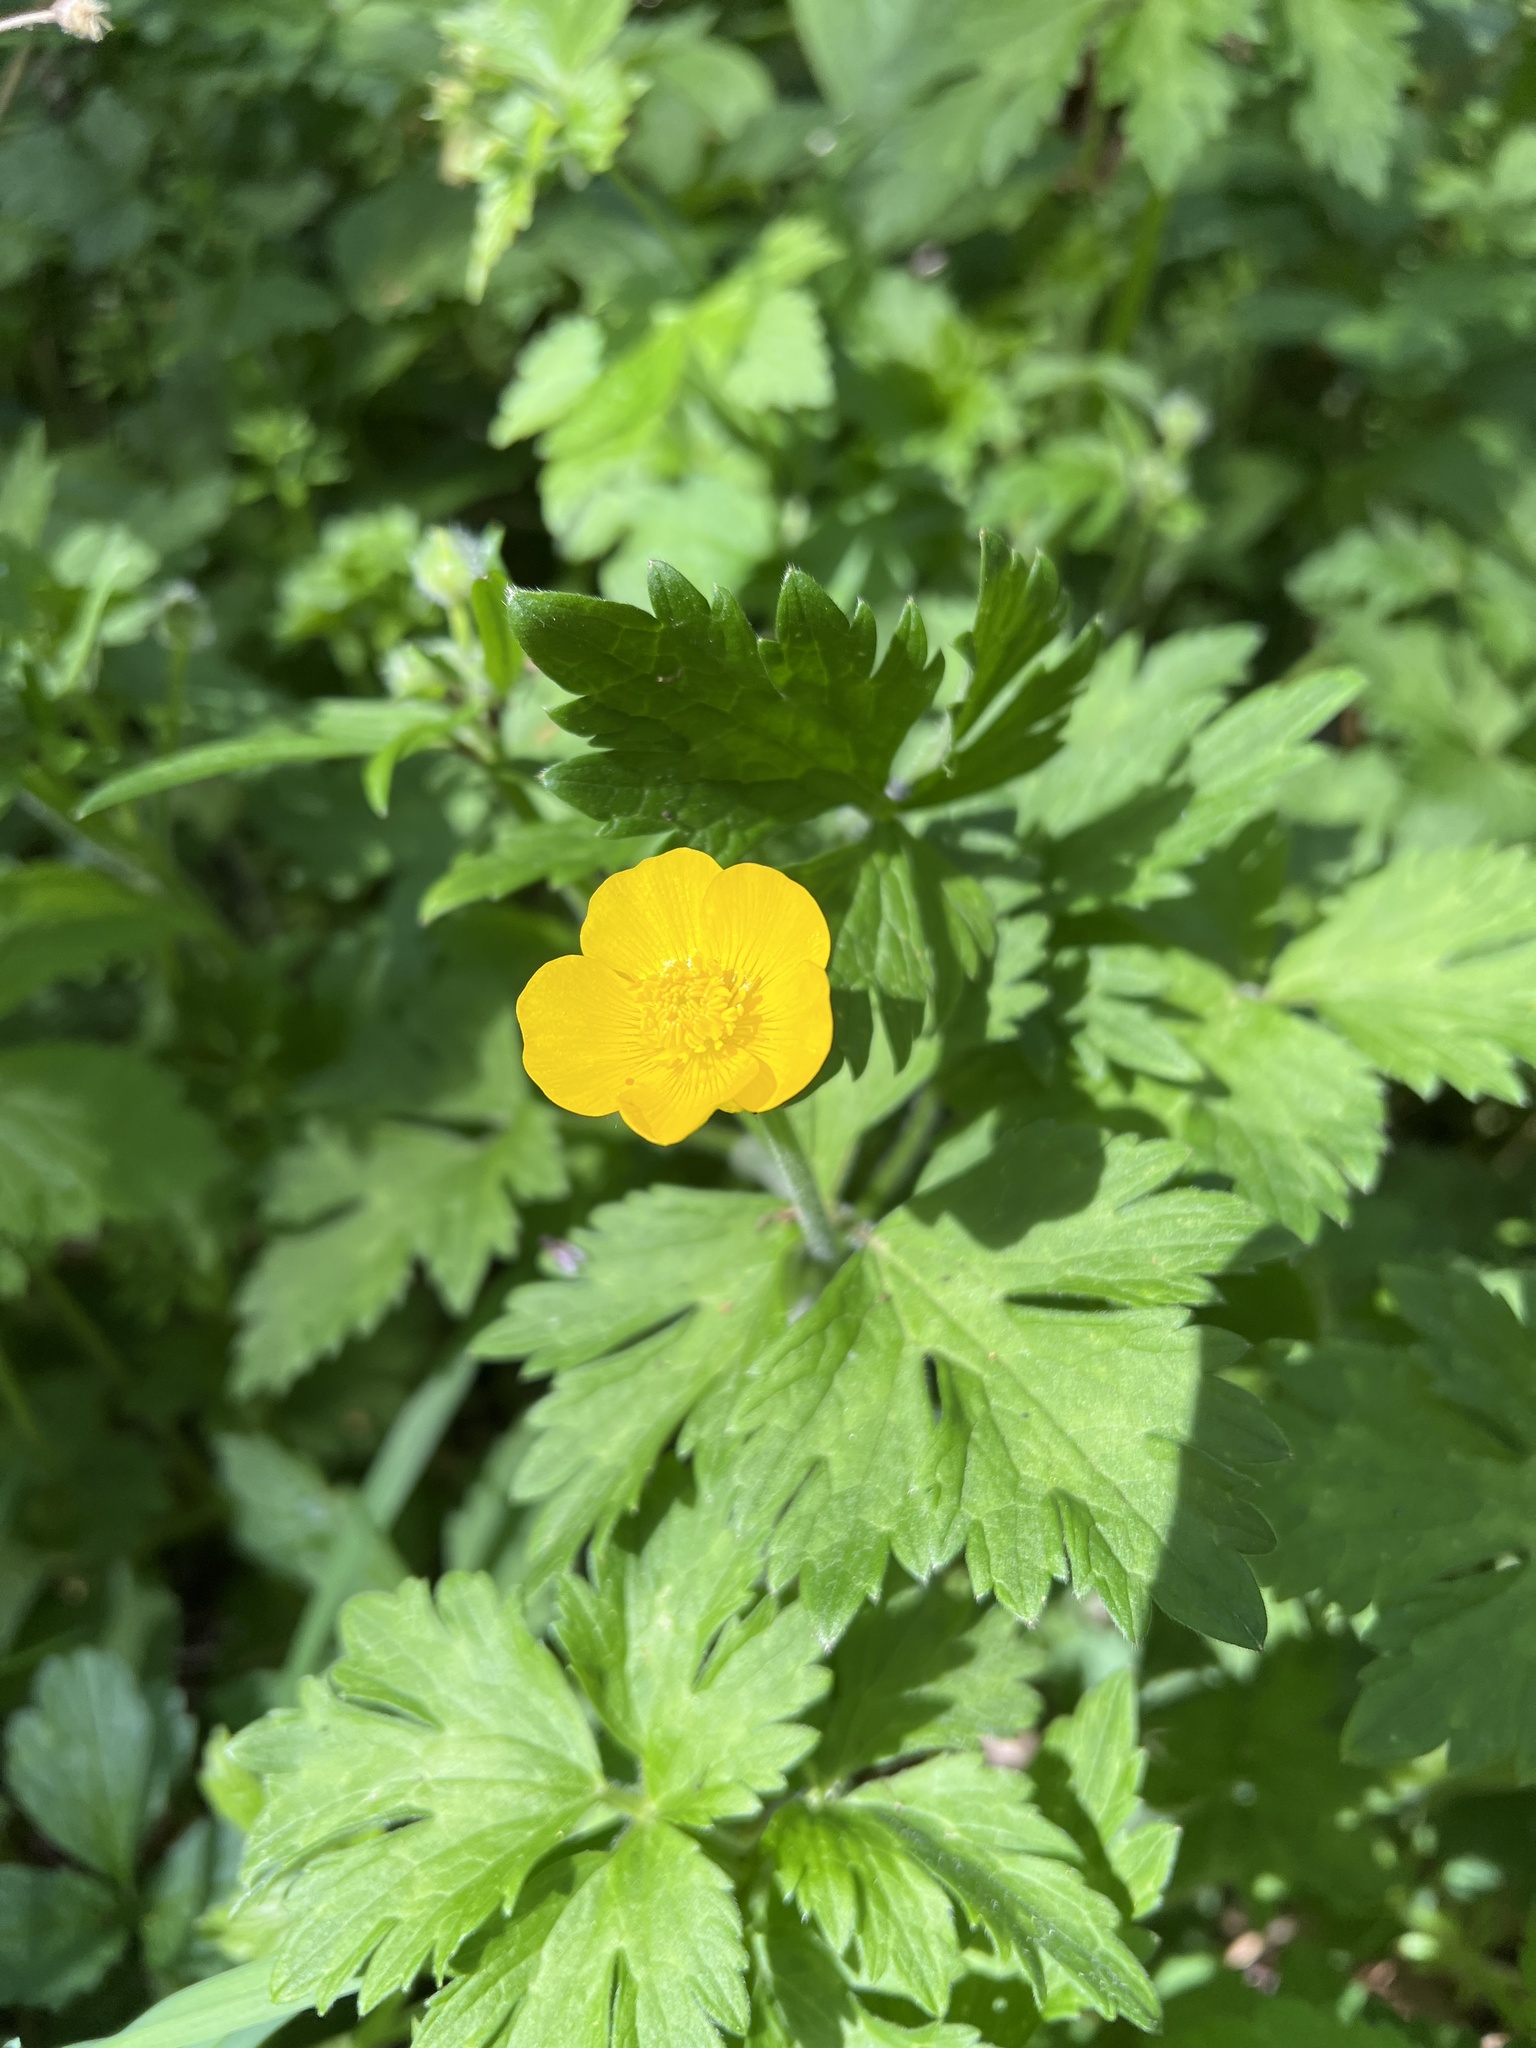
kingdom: Plantae
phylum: Tracheophyta
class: Magnoliopsida
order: Ranunculales
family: Ranunculaceae
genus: Ranunculus
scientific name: Ranunculus repens
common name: Creeping buttercup
